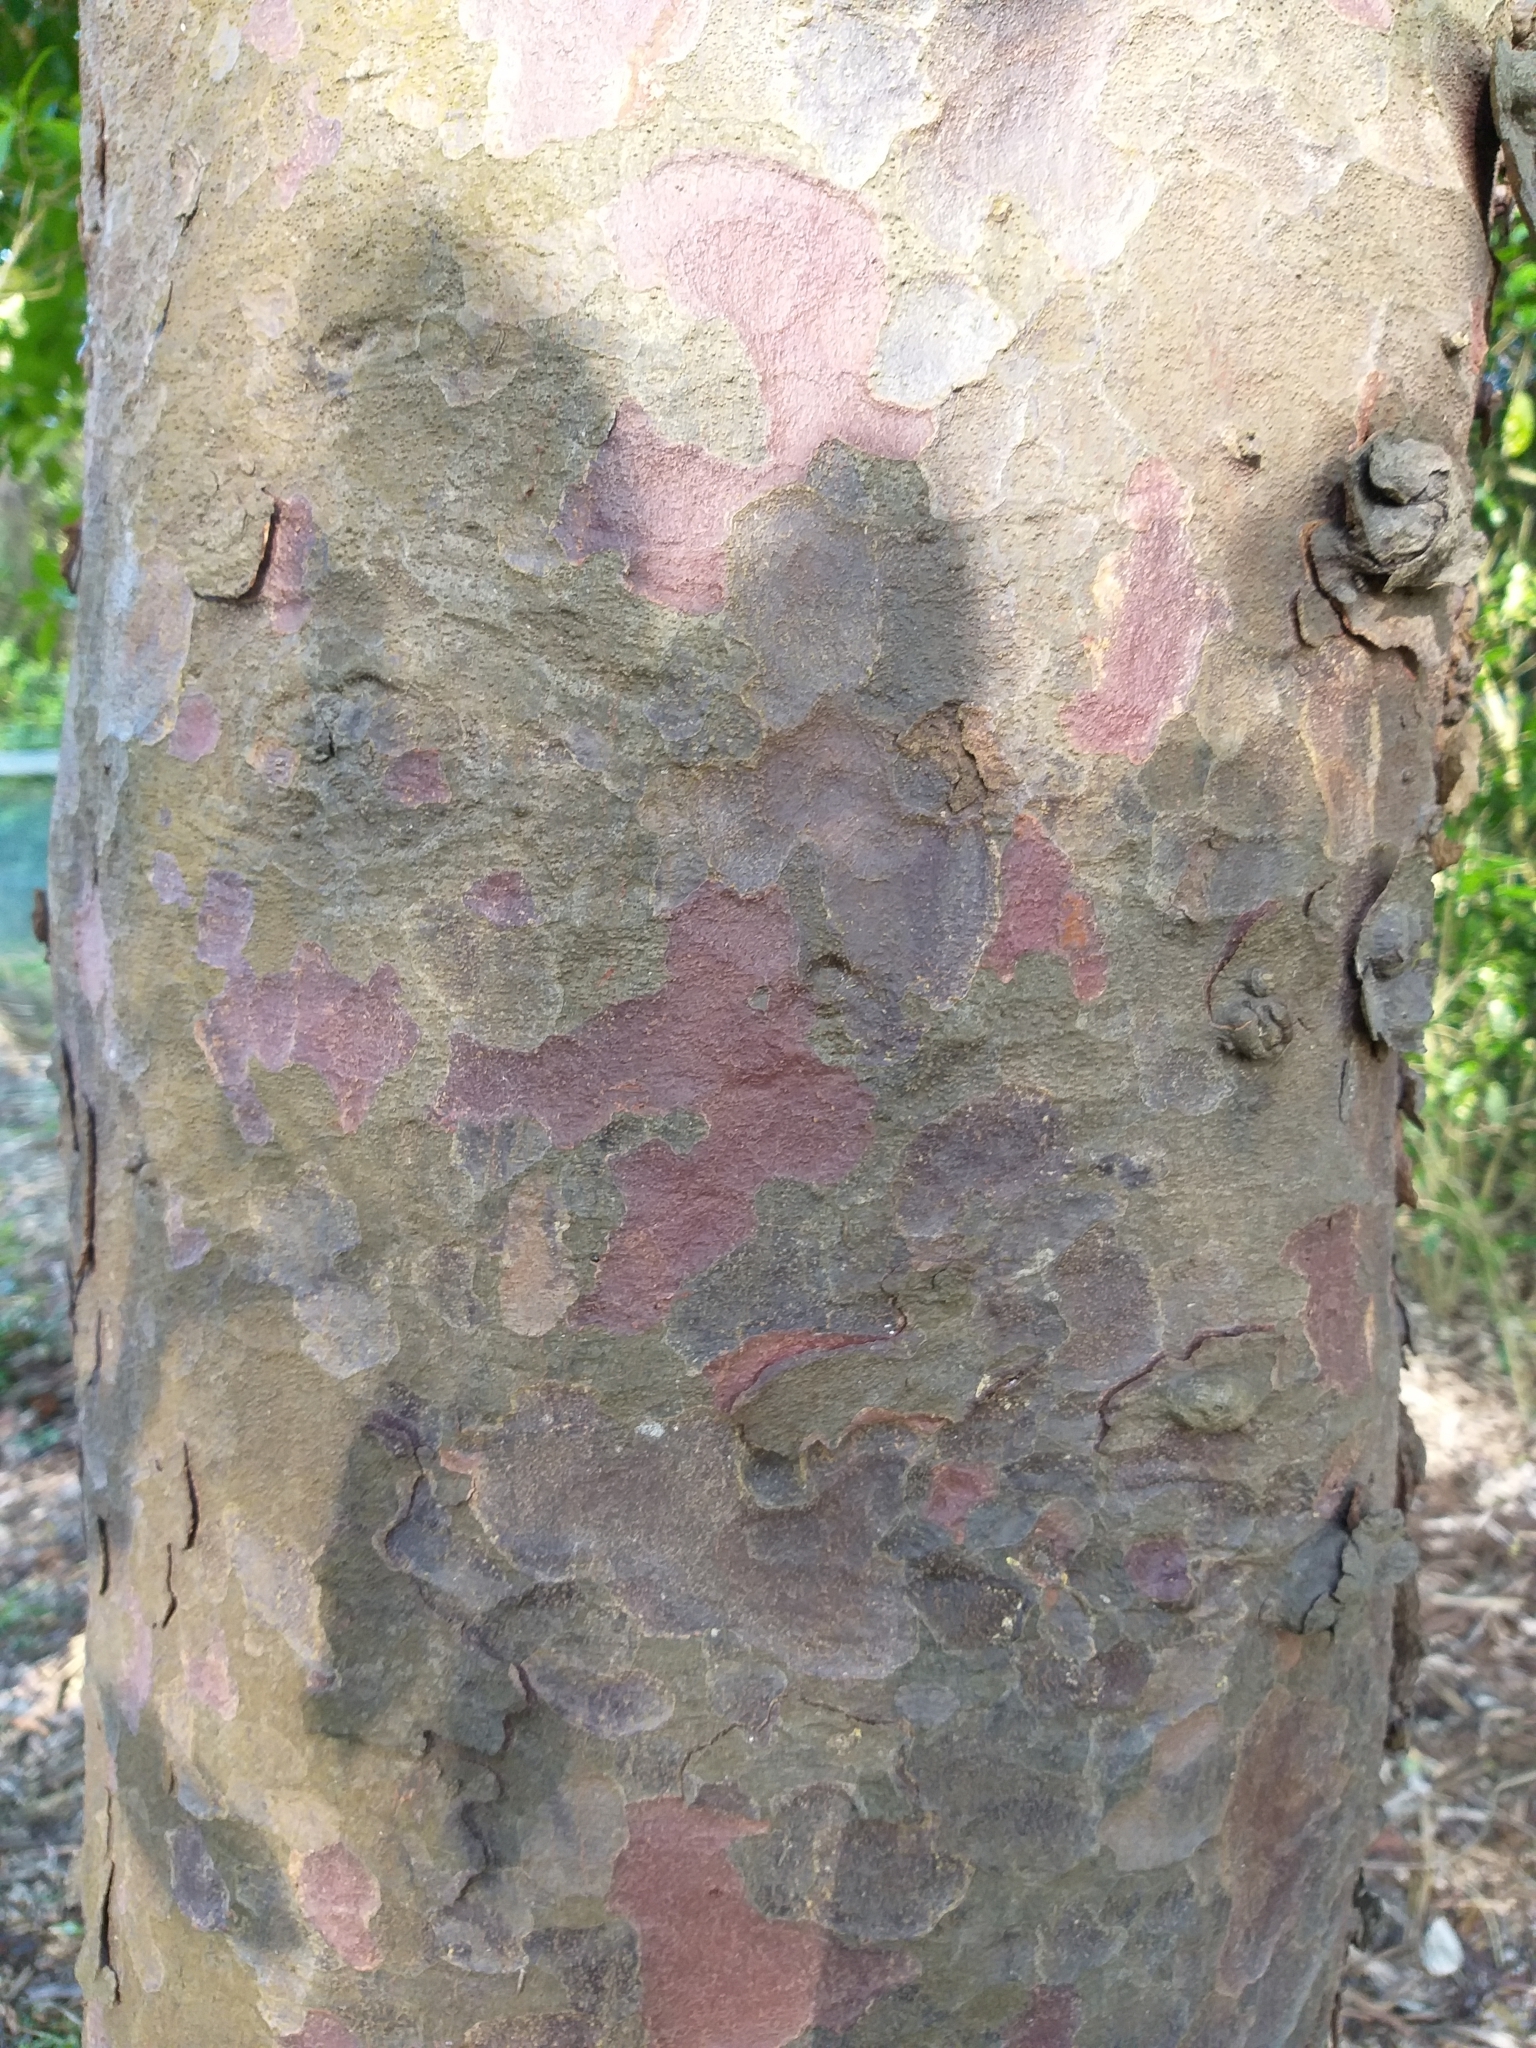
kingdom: Plantae
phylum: Tracheophyta
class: Pinopsida
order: Pinales
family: Podocarpaceae
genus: Prumnopitys
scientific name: Prumnopitys taxifolia
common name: Matai
